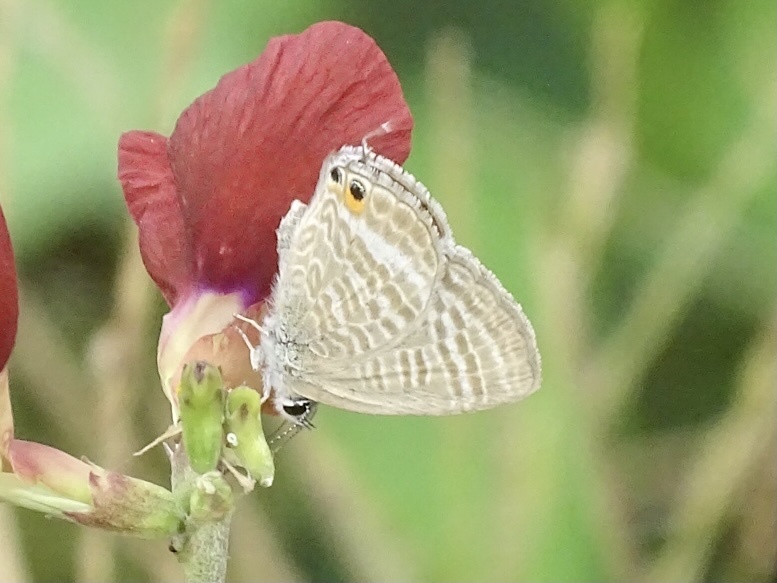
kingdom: Animalia
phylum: Arthropoda
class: Insecta
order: Lepidoptera
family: Lycaenidae
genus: Lampides
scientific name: Lampides boeticus
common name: Long-tailed blue
